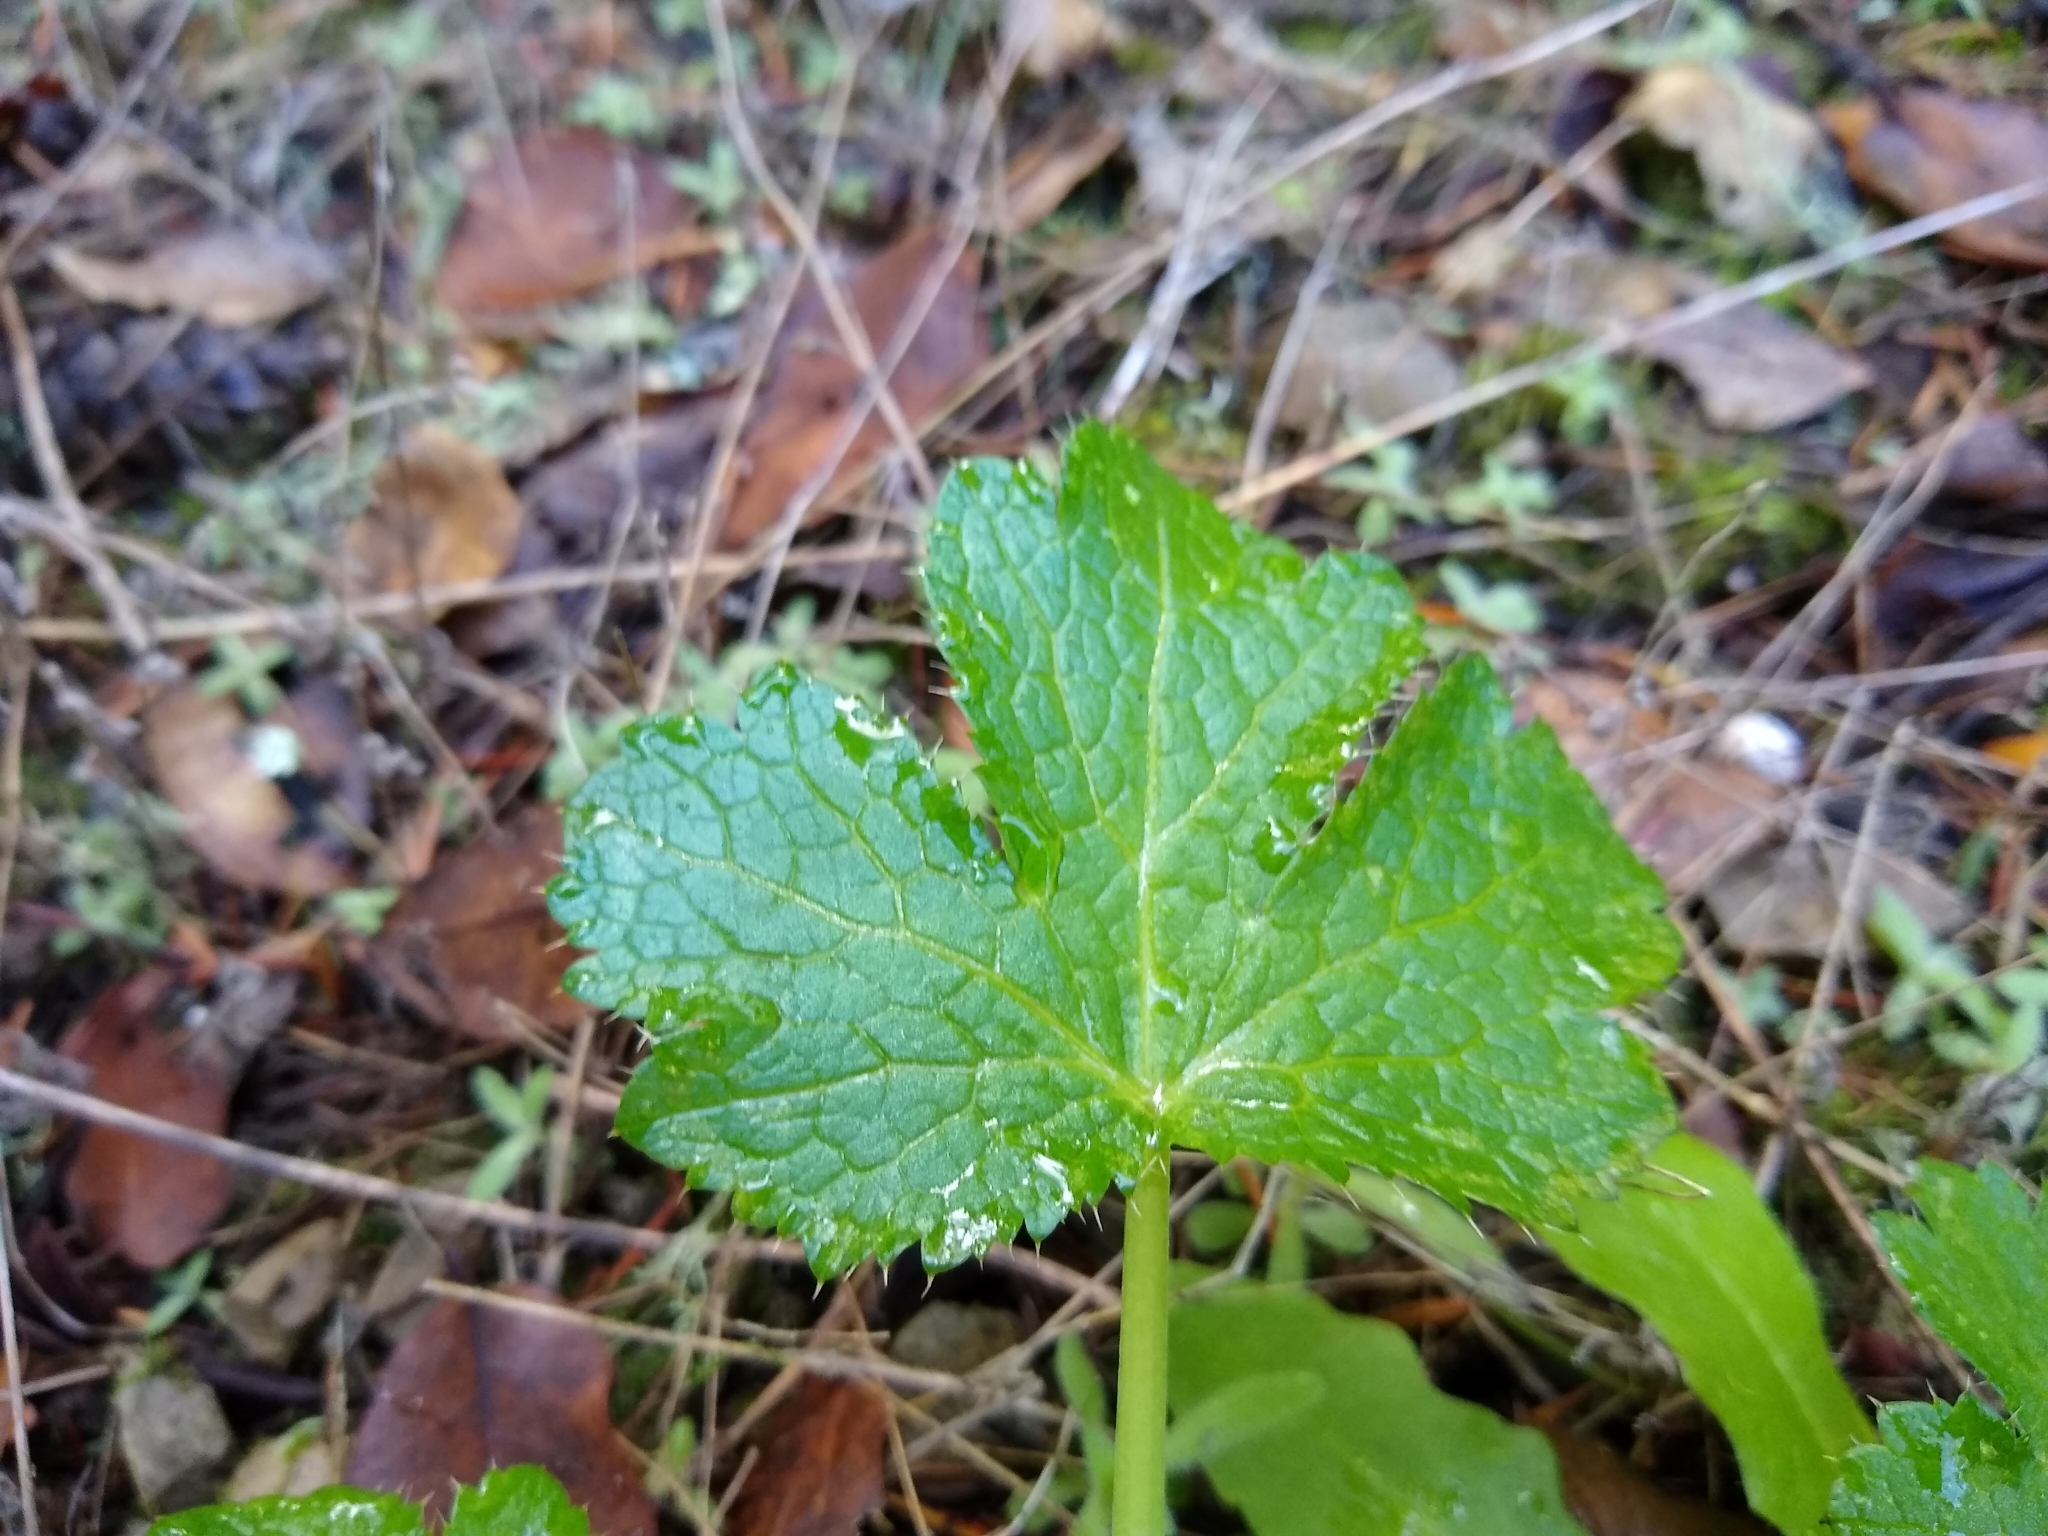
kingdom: Plantae
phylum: Tracheophyta
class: Magnoliopsida
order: Apiales
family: Apiaceae
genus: Sanicula
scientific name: Sanicula crassicaulis
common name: Western snakeroot
